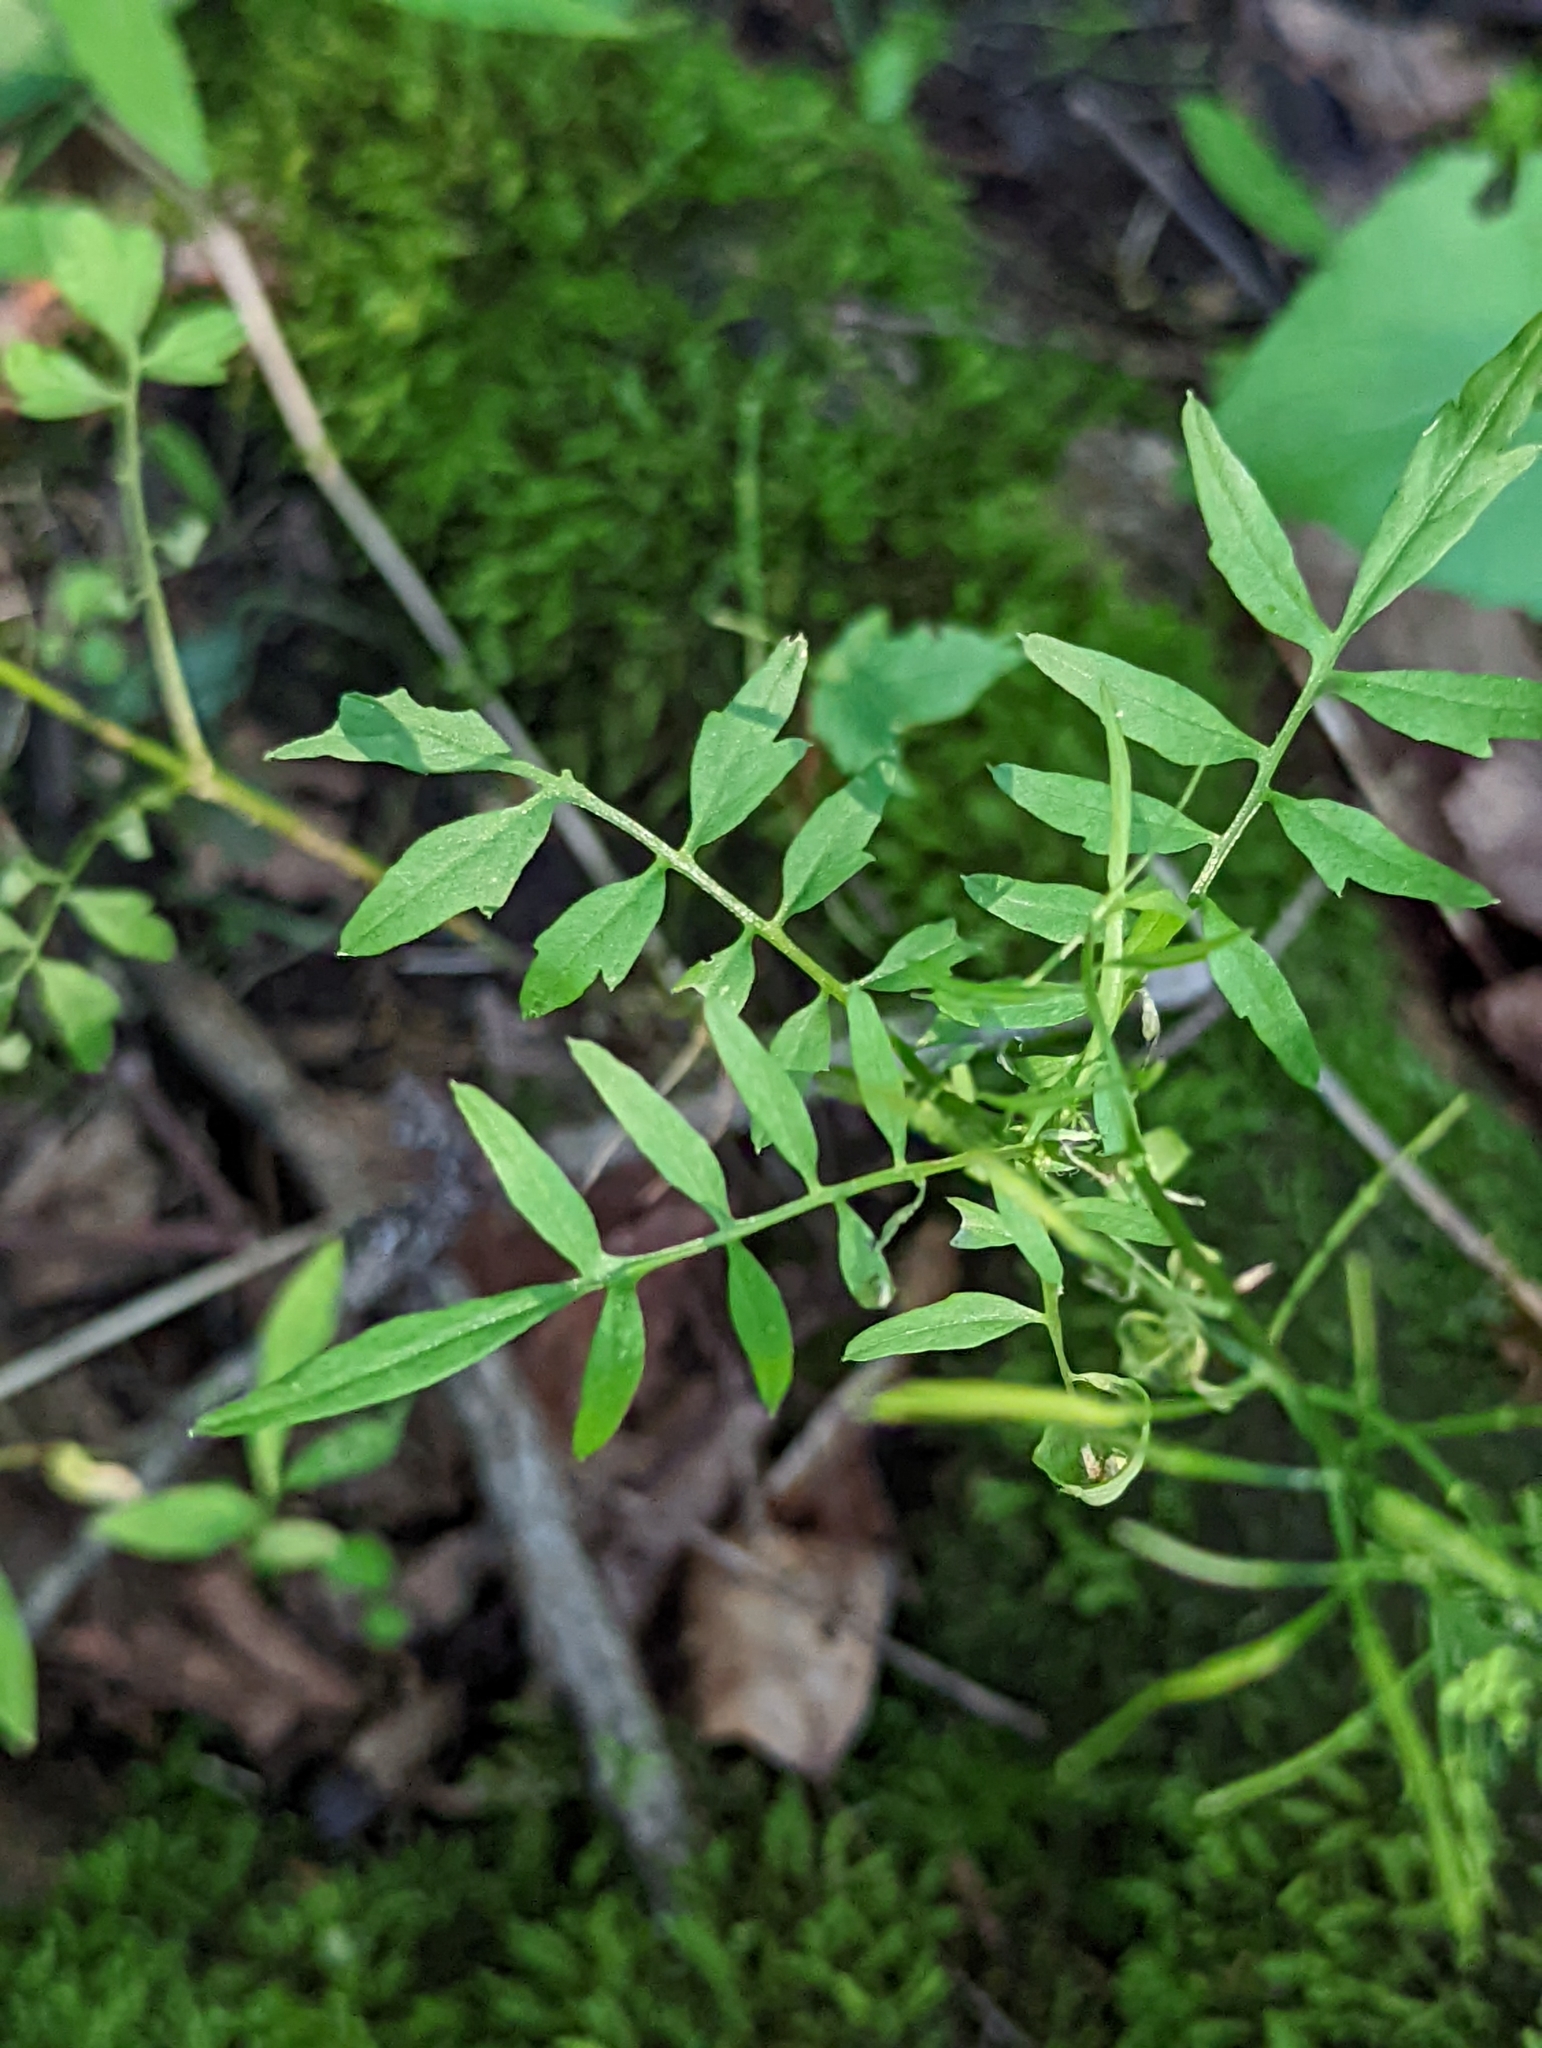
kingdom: Plantae
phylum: Tracheophyta
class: Magnoliopsida
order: Brassicales
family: Brassicaceae
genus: Cardamine
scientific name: Cardamine impatiens
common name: Narrow-leaved bitter-cress
